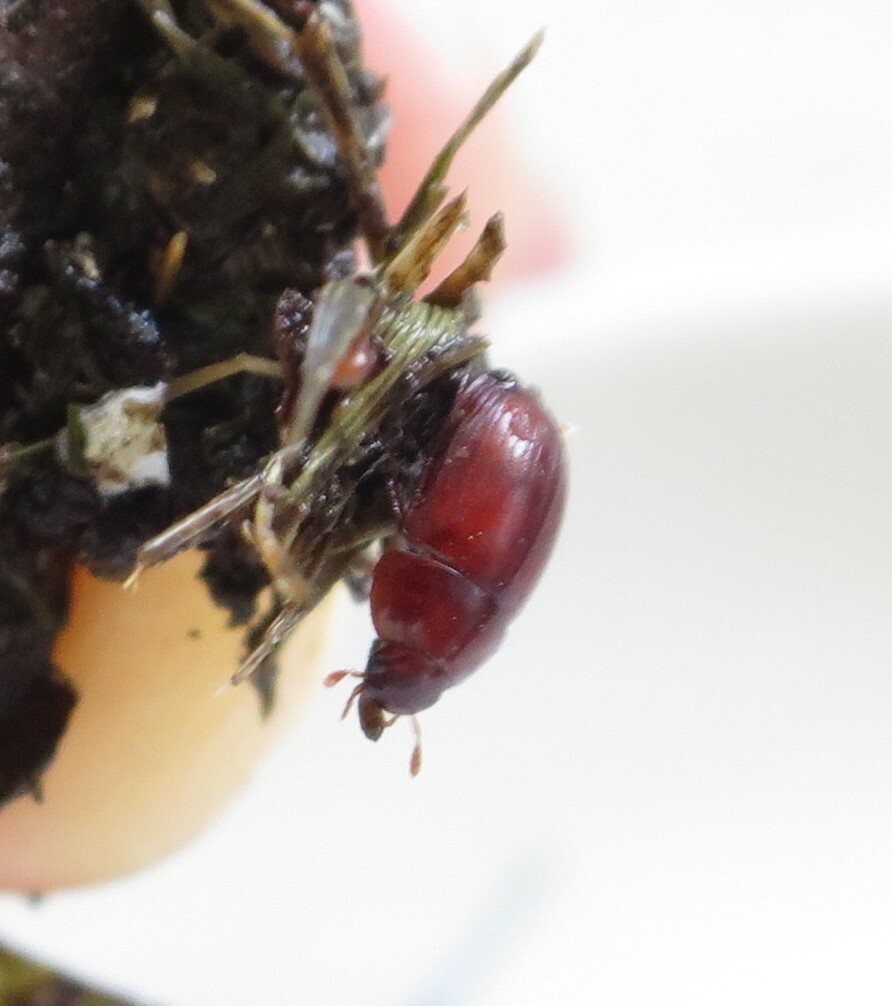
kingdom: Animalia
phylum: Arthropoda
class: Insecta
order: Coleoptera
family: Hydrophilidae
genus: Dactylosternum
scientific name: Dactylosternum abdominale
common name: Water scavenger beetle
